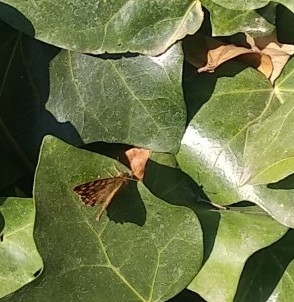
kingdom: Animalia
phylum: Arthropoda
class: Insecta
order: Lepidoptera
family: Nymphalidae
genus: Pararge
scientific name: Pararge aegeria
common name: Speckled wood
